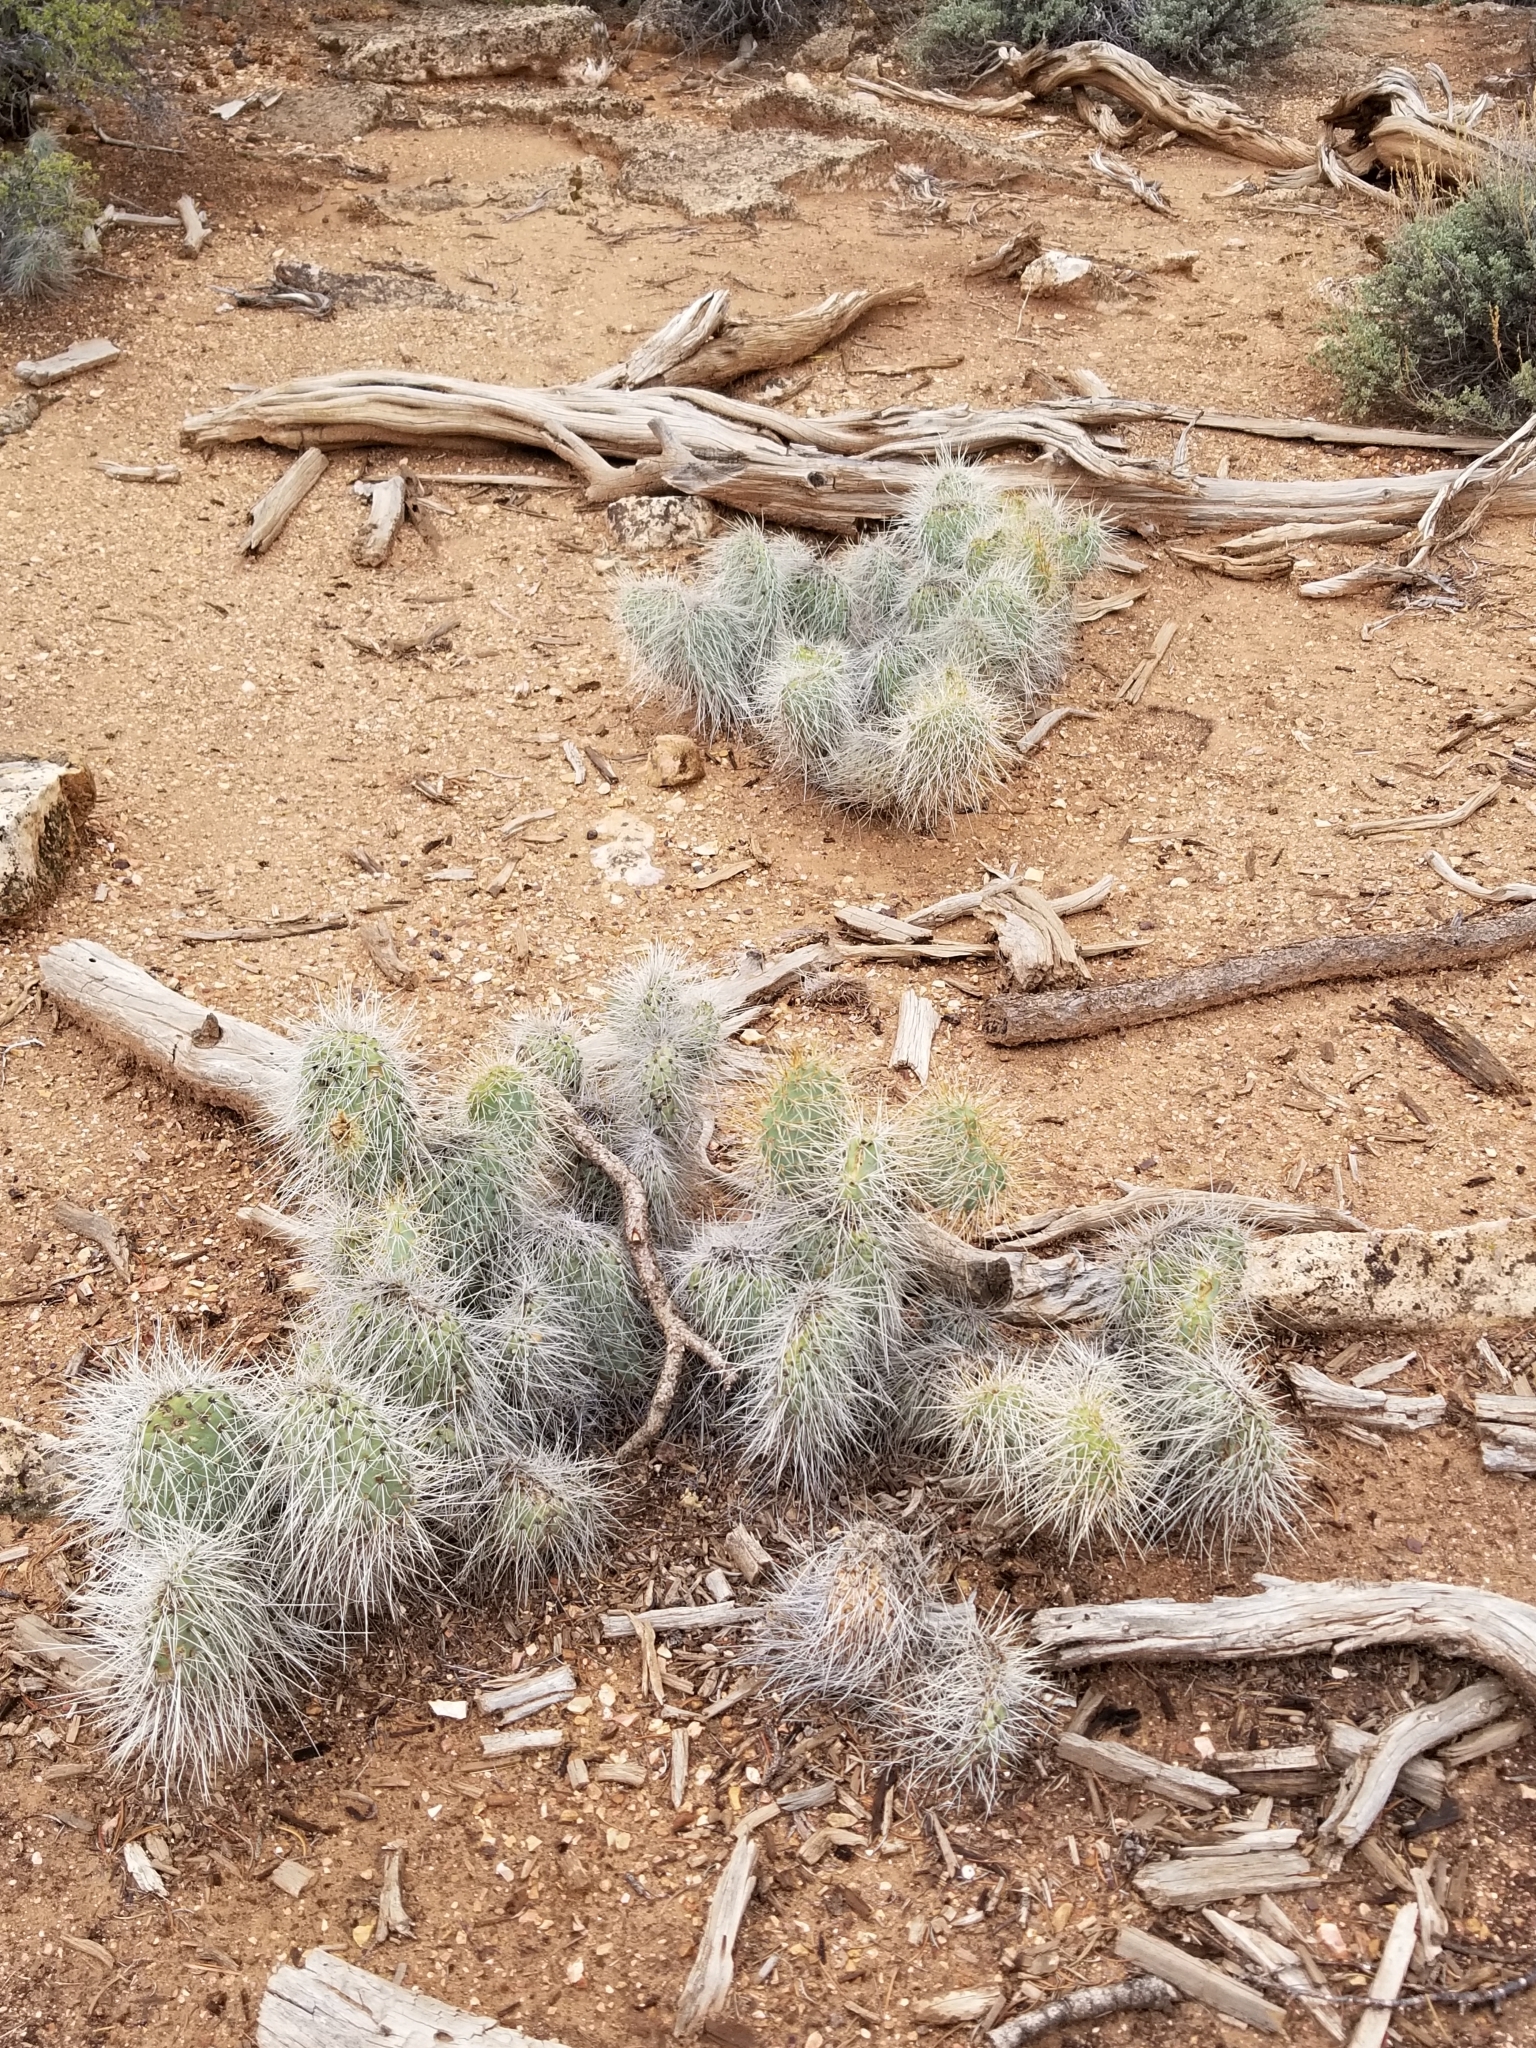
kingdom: Plantae
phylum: Tracheophyta
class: Magnoliopsida
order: Caryophyllales
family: Cactaceae
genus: Opuntia
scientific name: Opuntia polyacantha
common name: Plains prickly-pear
